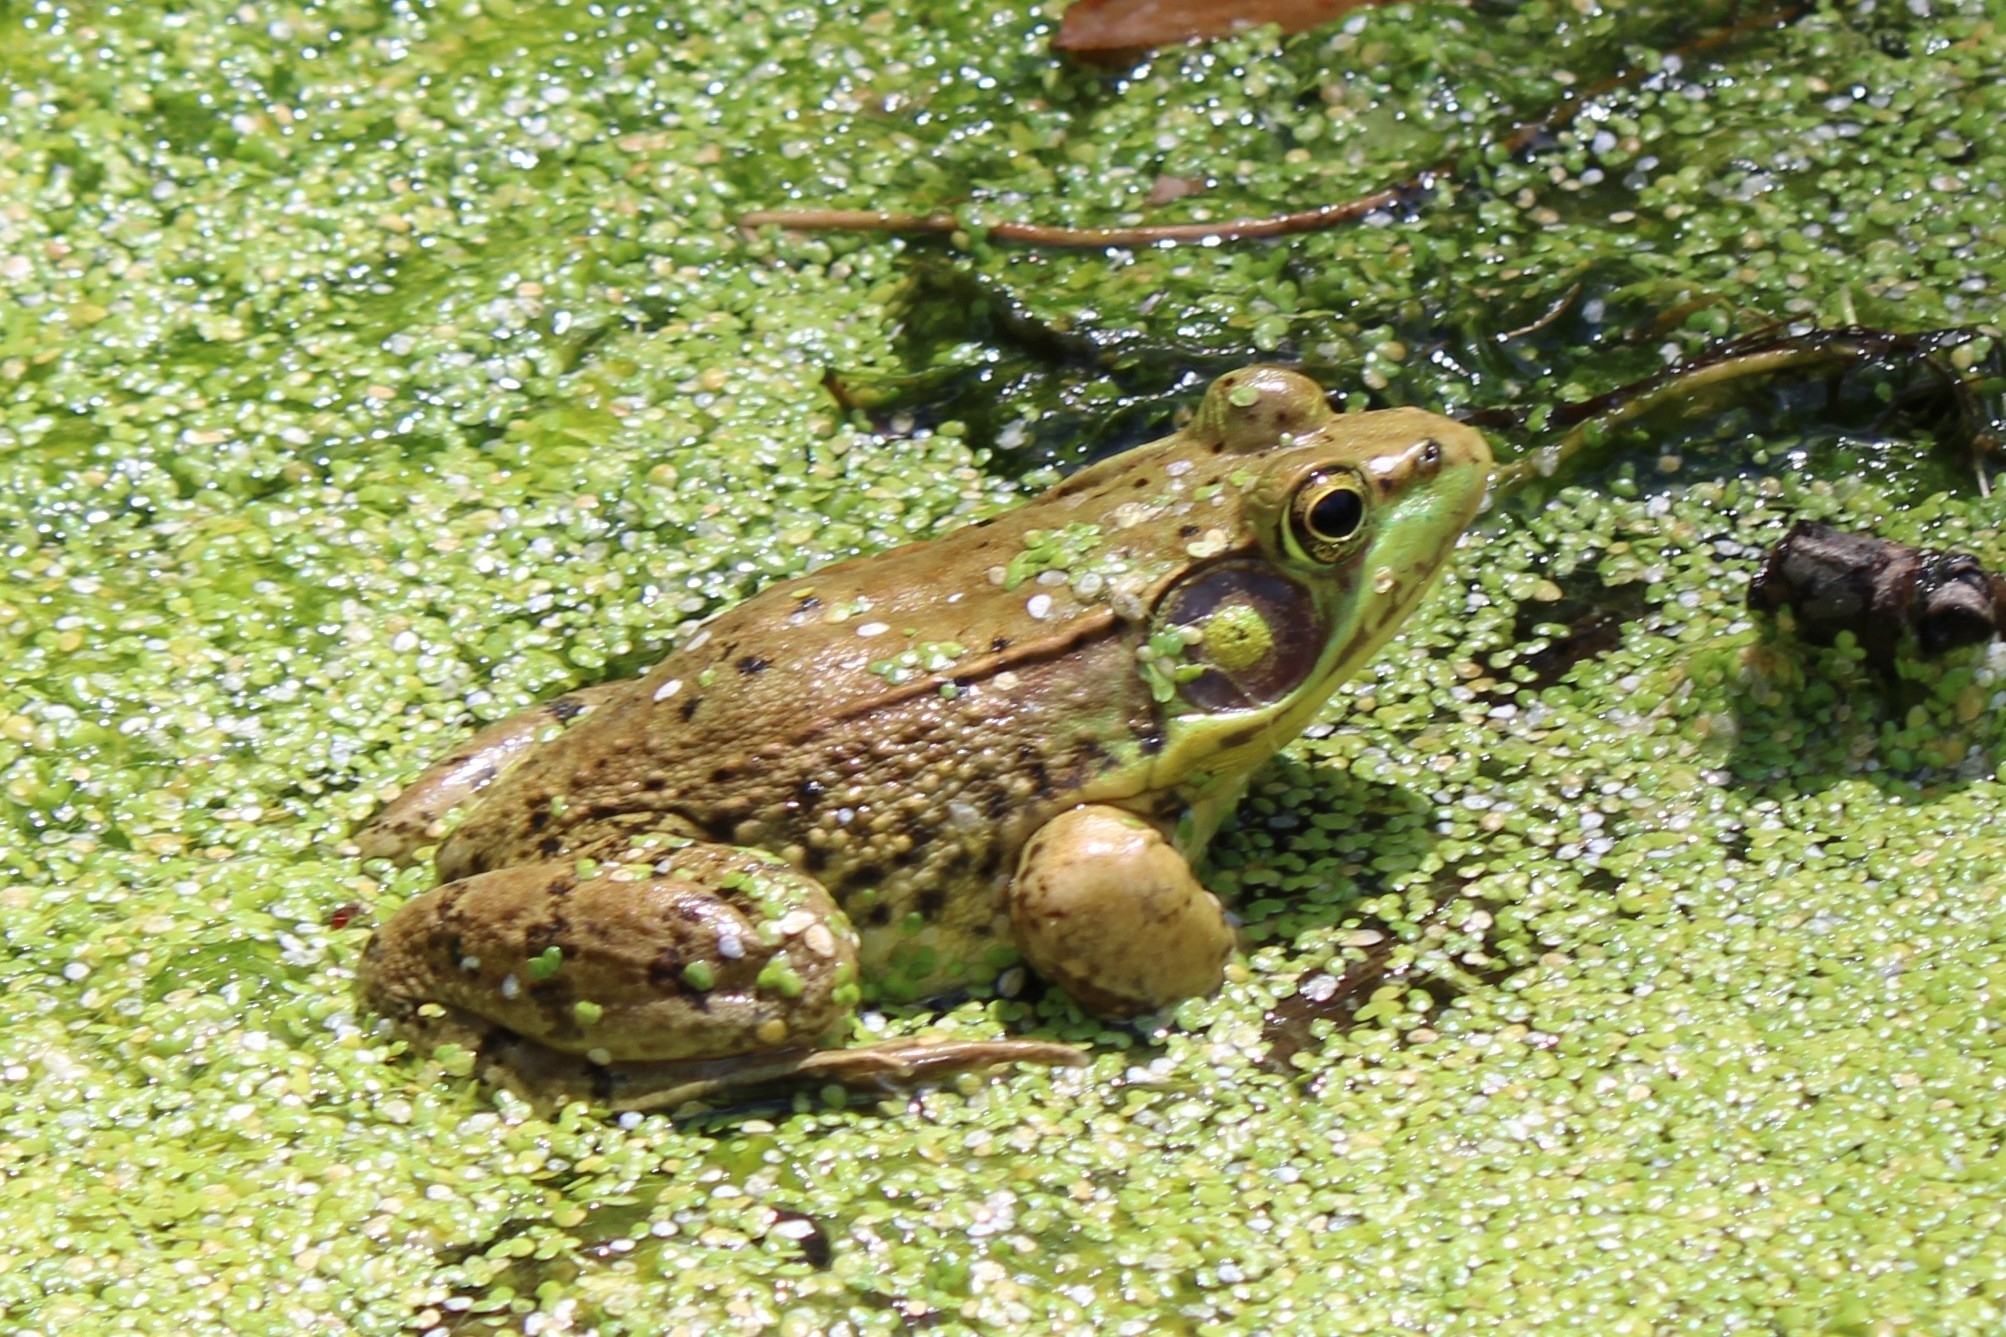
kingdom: Animalia
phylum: Chordata
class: Amphibia
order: Anura
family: Ranidae
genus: Lithobates
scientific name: Lithobates clamitans
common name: Green frog
